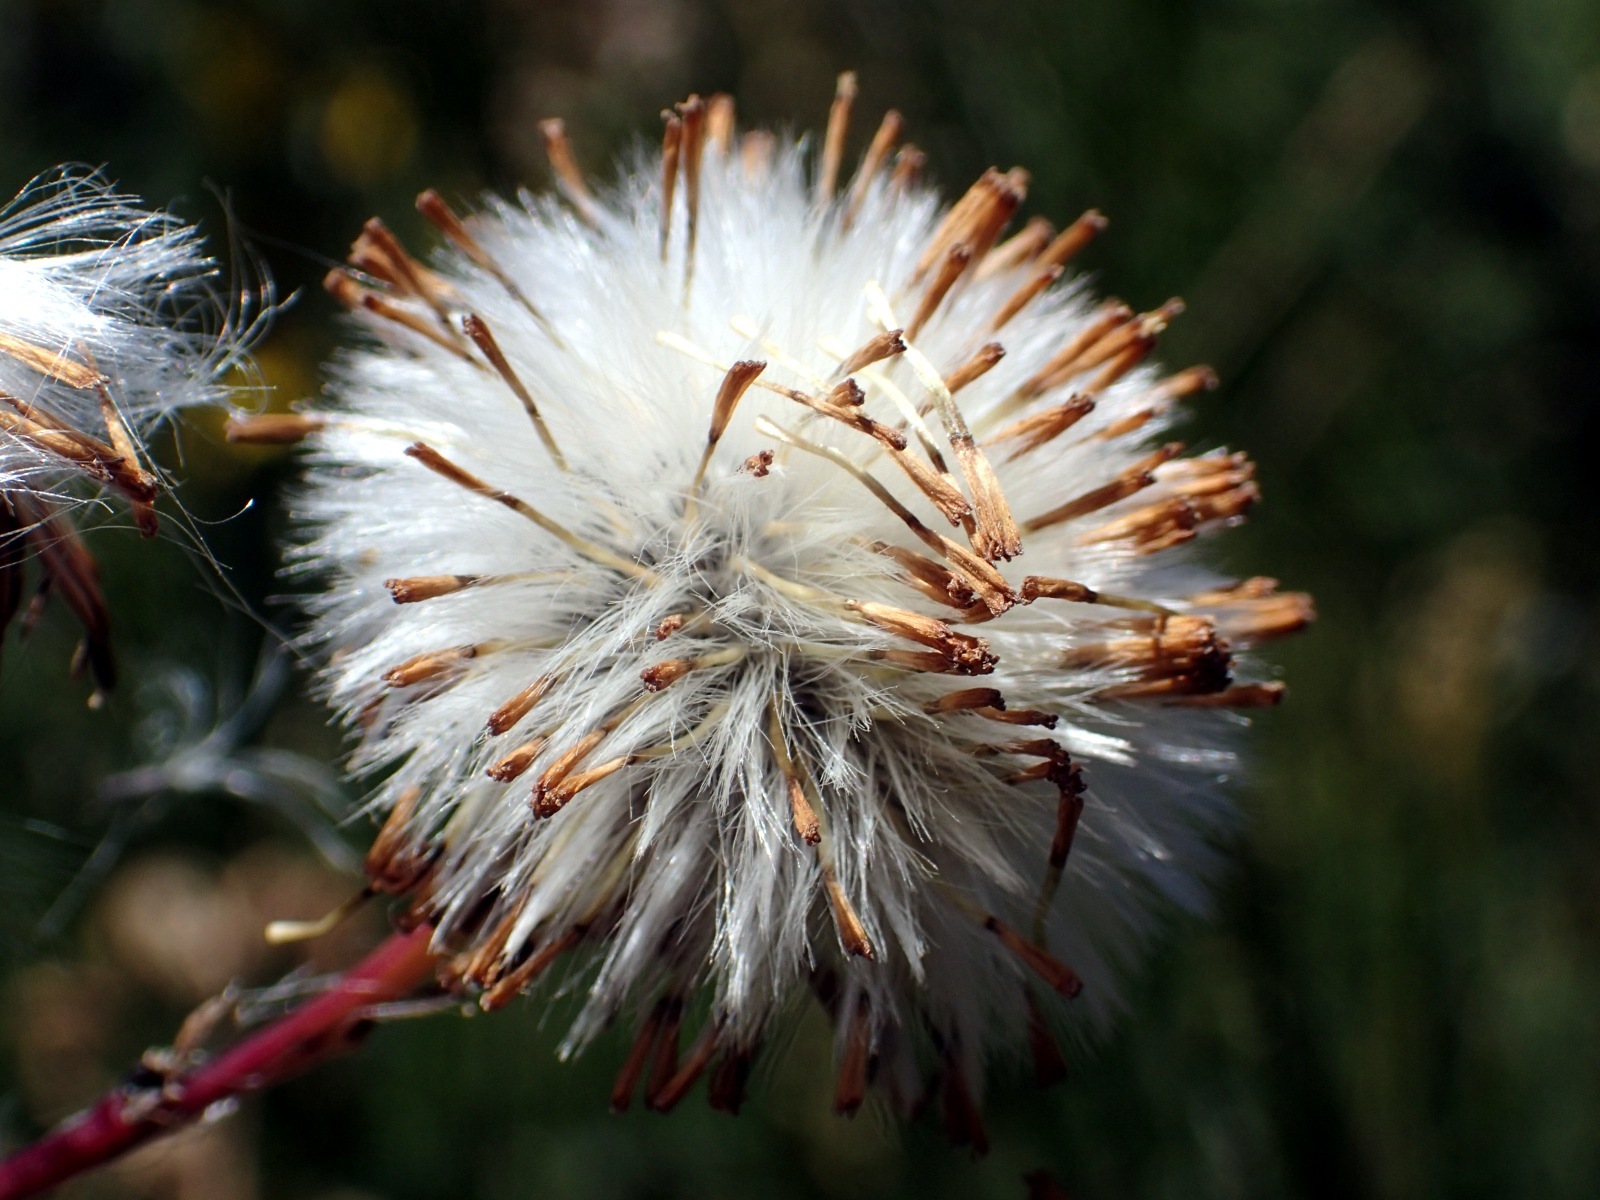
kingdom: Plantae
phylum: Tracheophyta
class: Magnoliopsida
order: Asterales
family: Asteraceae
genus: Senecio
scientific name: Senecio glastifolius
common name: Woad-leaved ragwort
